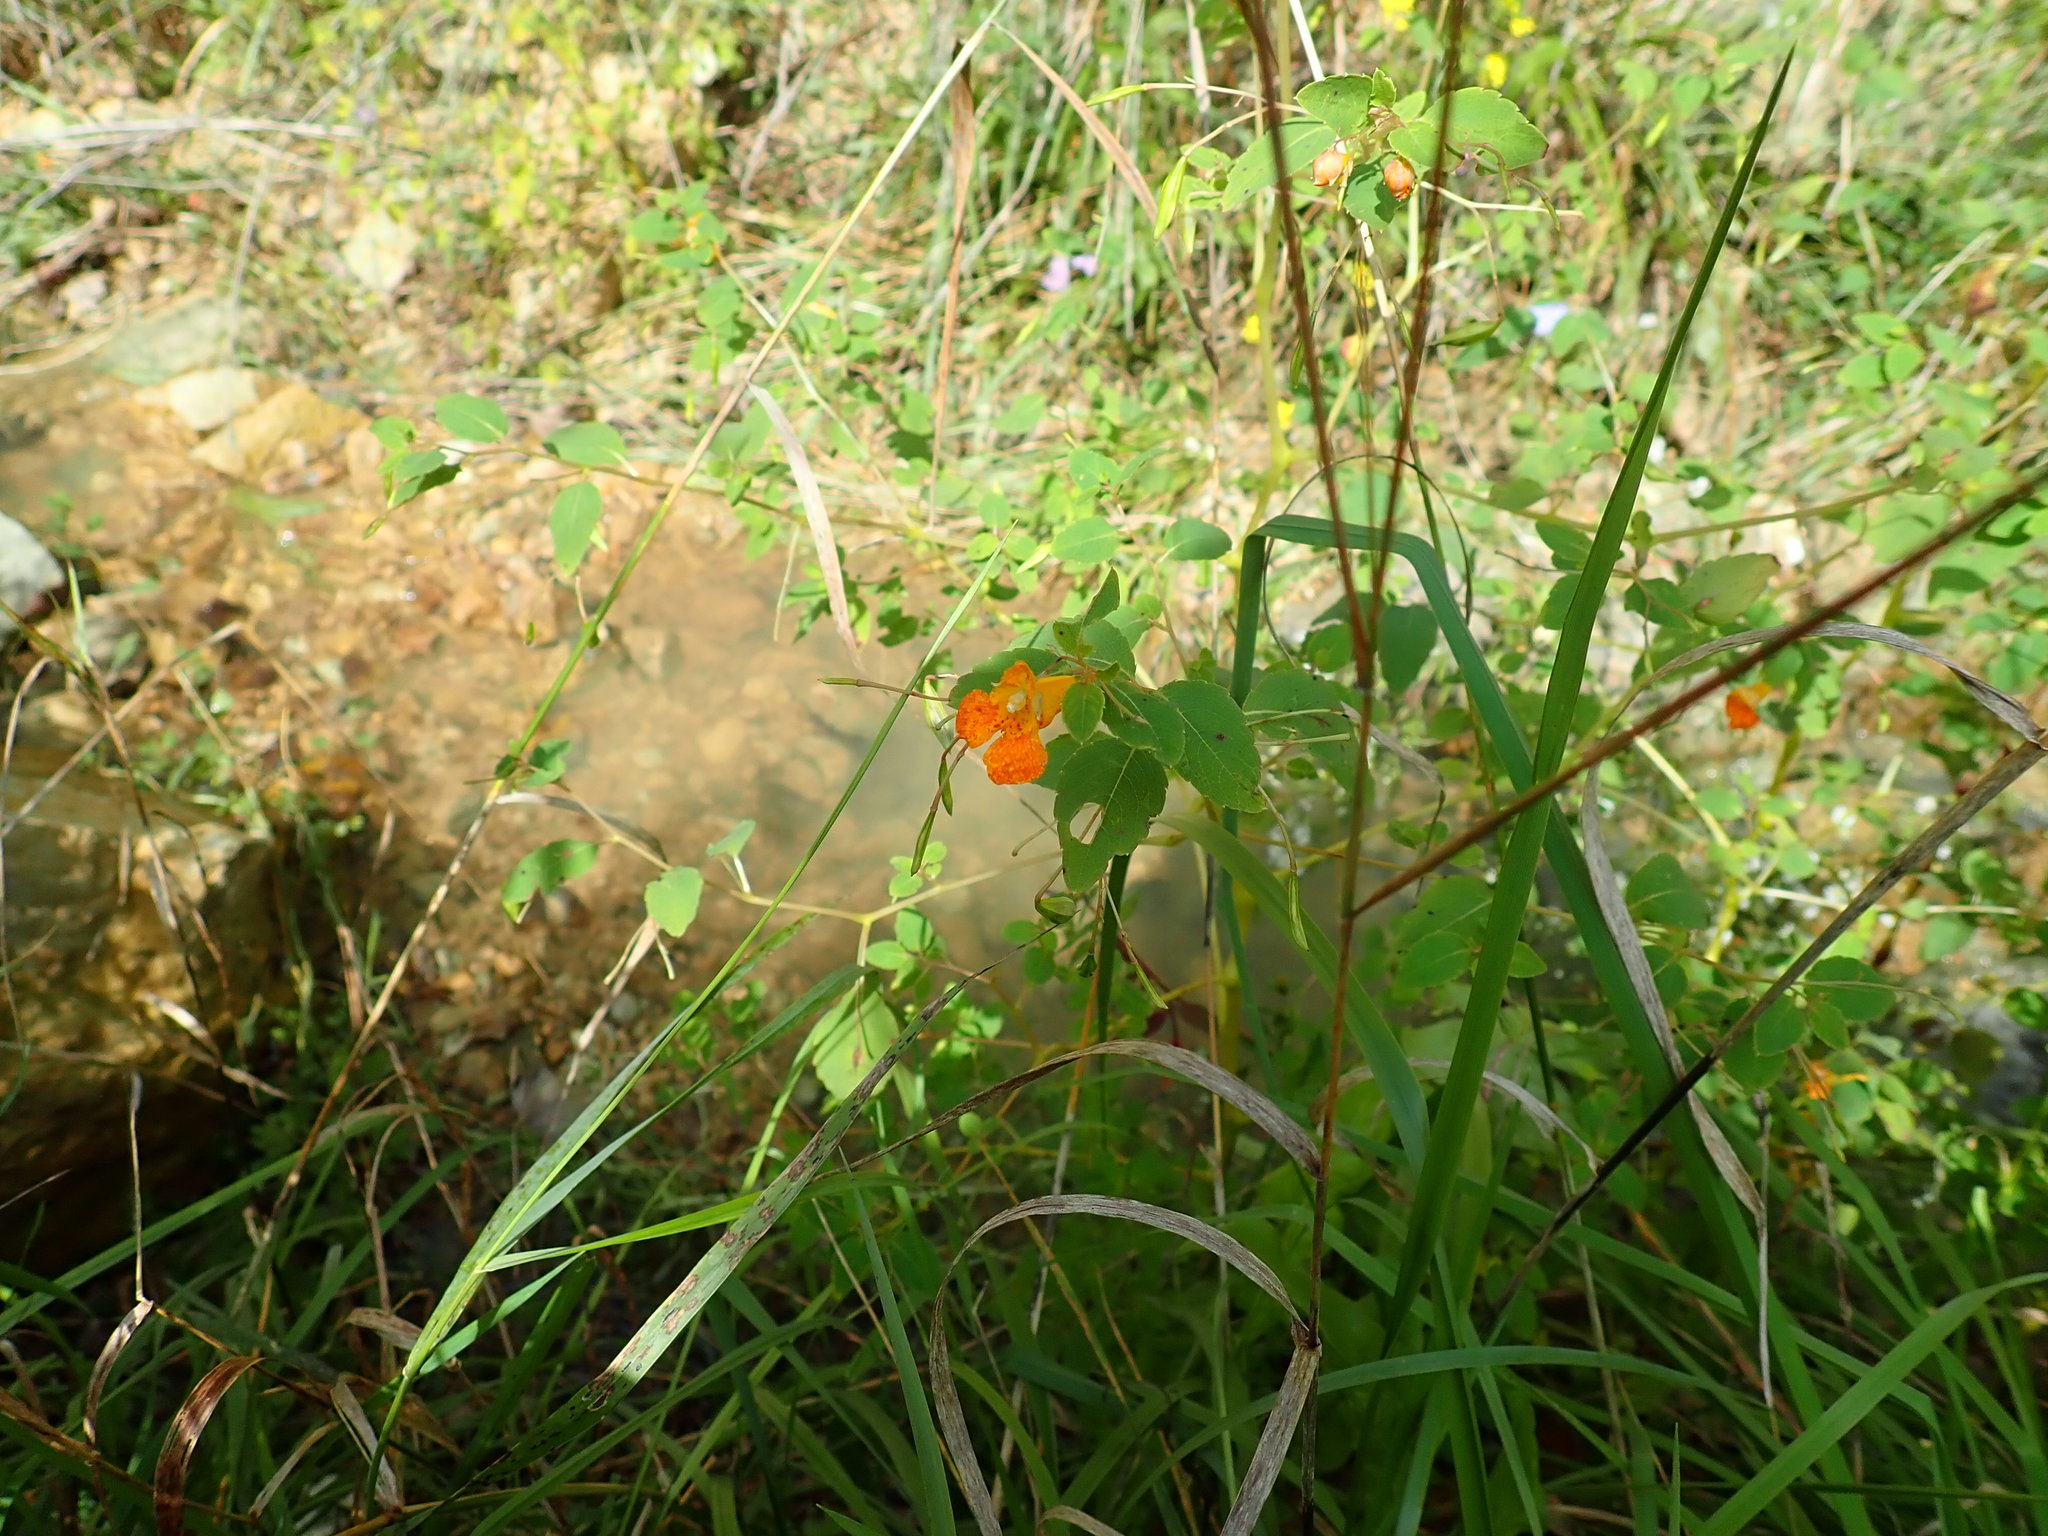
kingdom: Plantae
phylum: Tracheophyta
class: Magnoliopsida
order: Ericales
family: Balsaminaceae
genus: Impatiens
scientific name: Impatiens capensis
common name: Orange balsam
